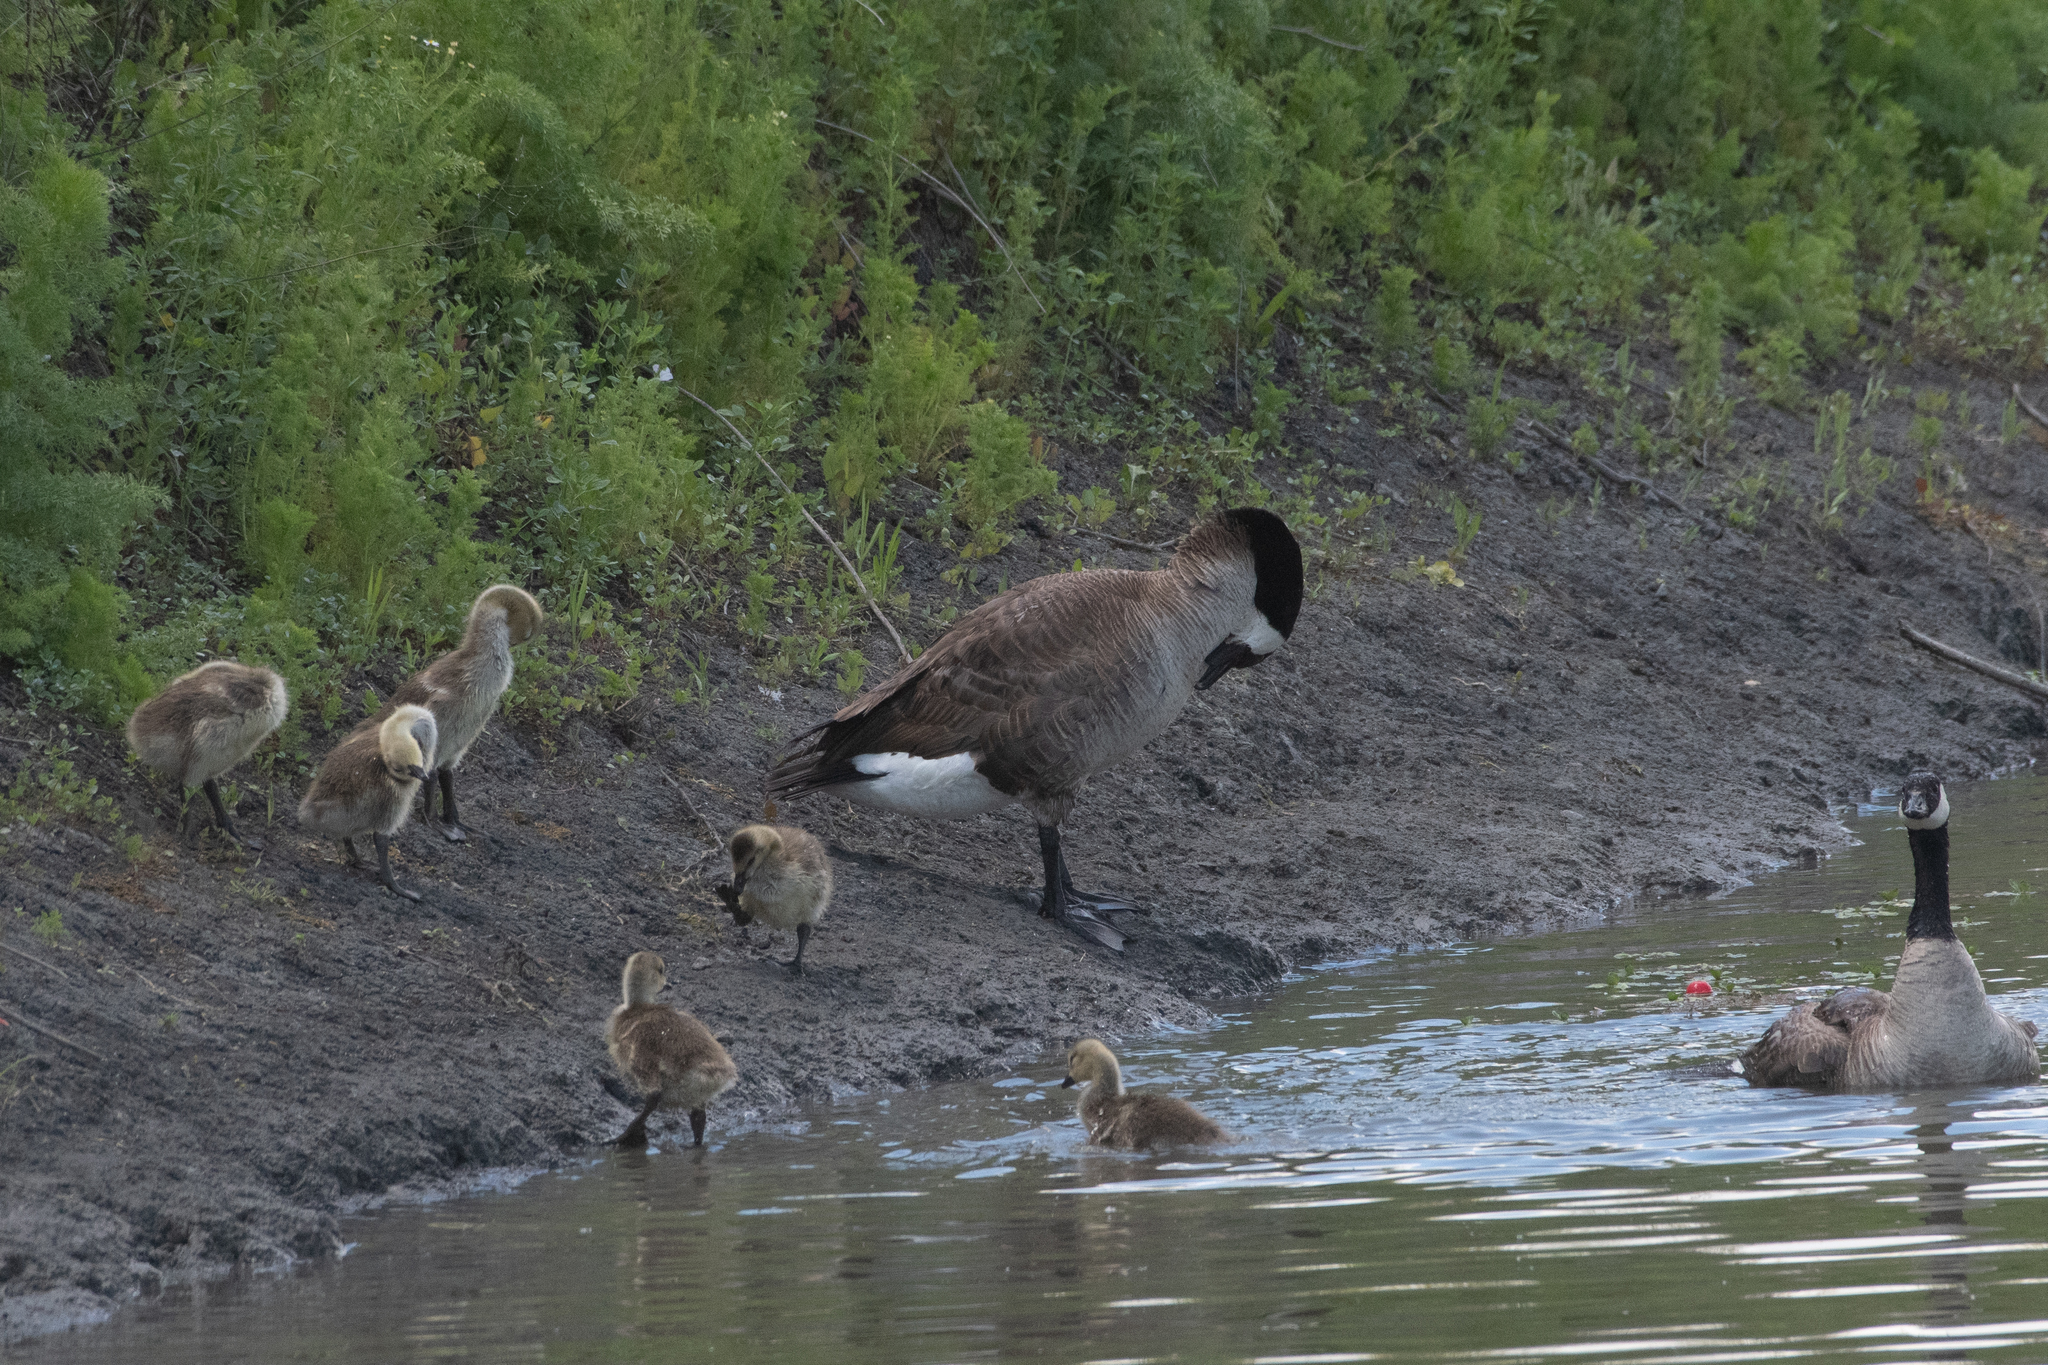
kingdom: Animalia
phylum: Chordata
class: Aves
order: Anseriformes
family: Anatidae
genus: Branta
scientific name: Branta canadensis
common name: Canada goose
